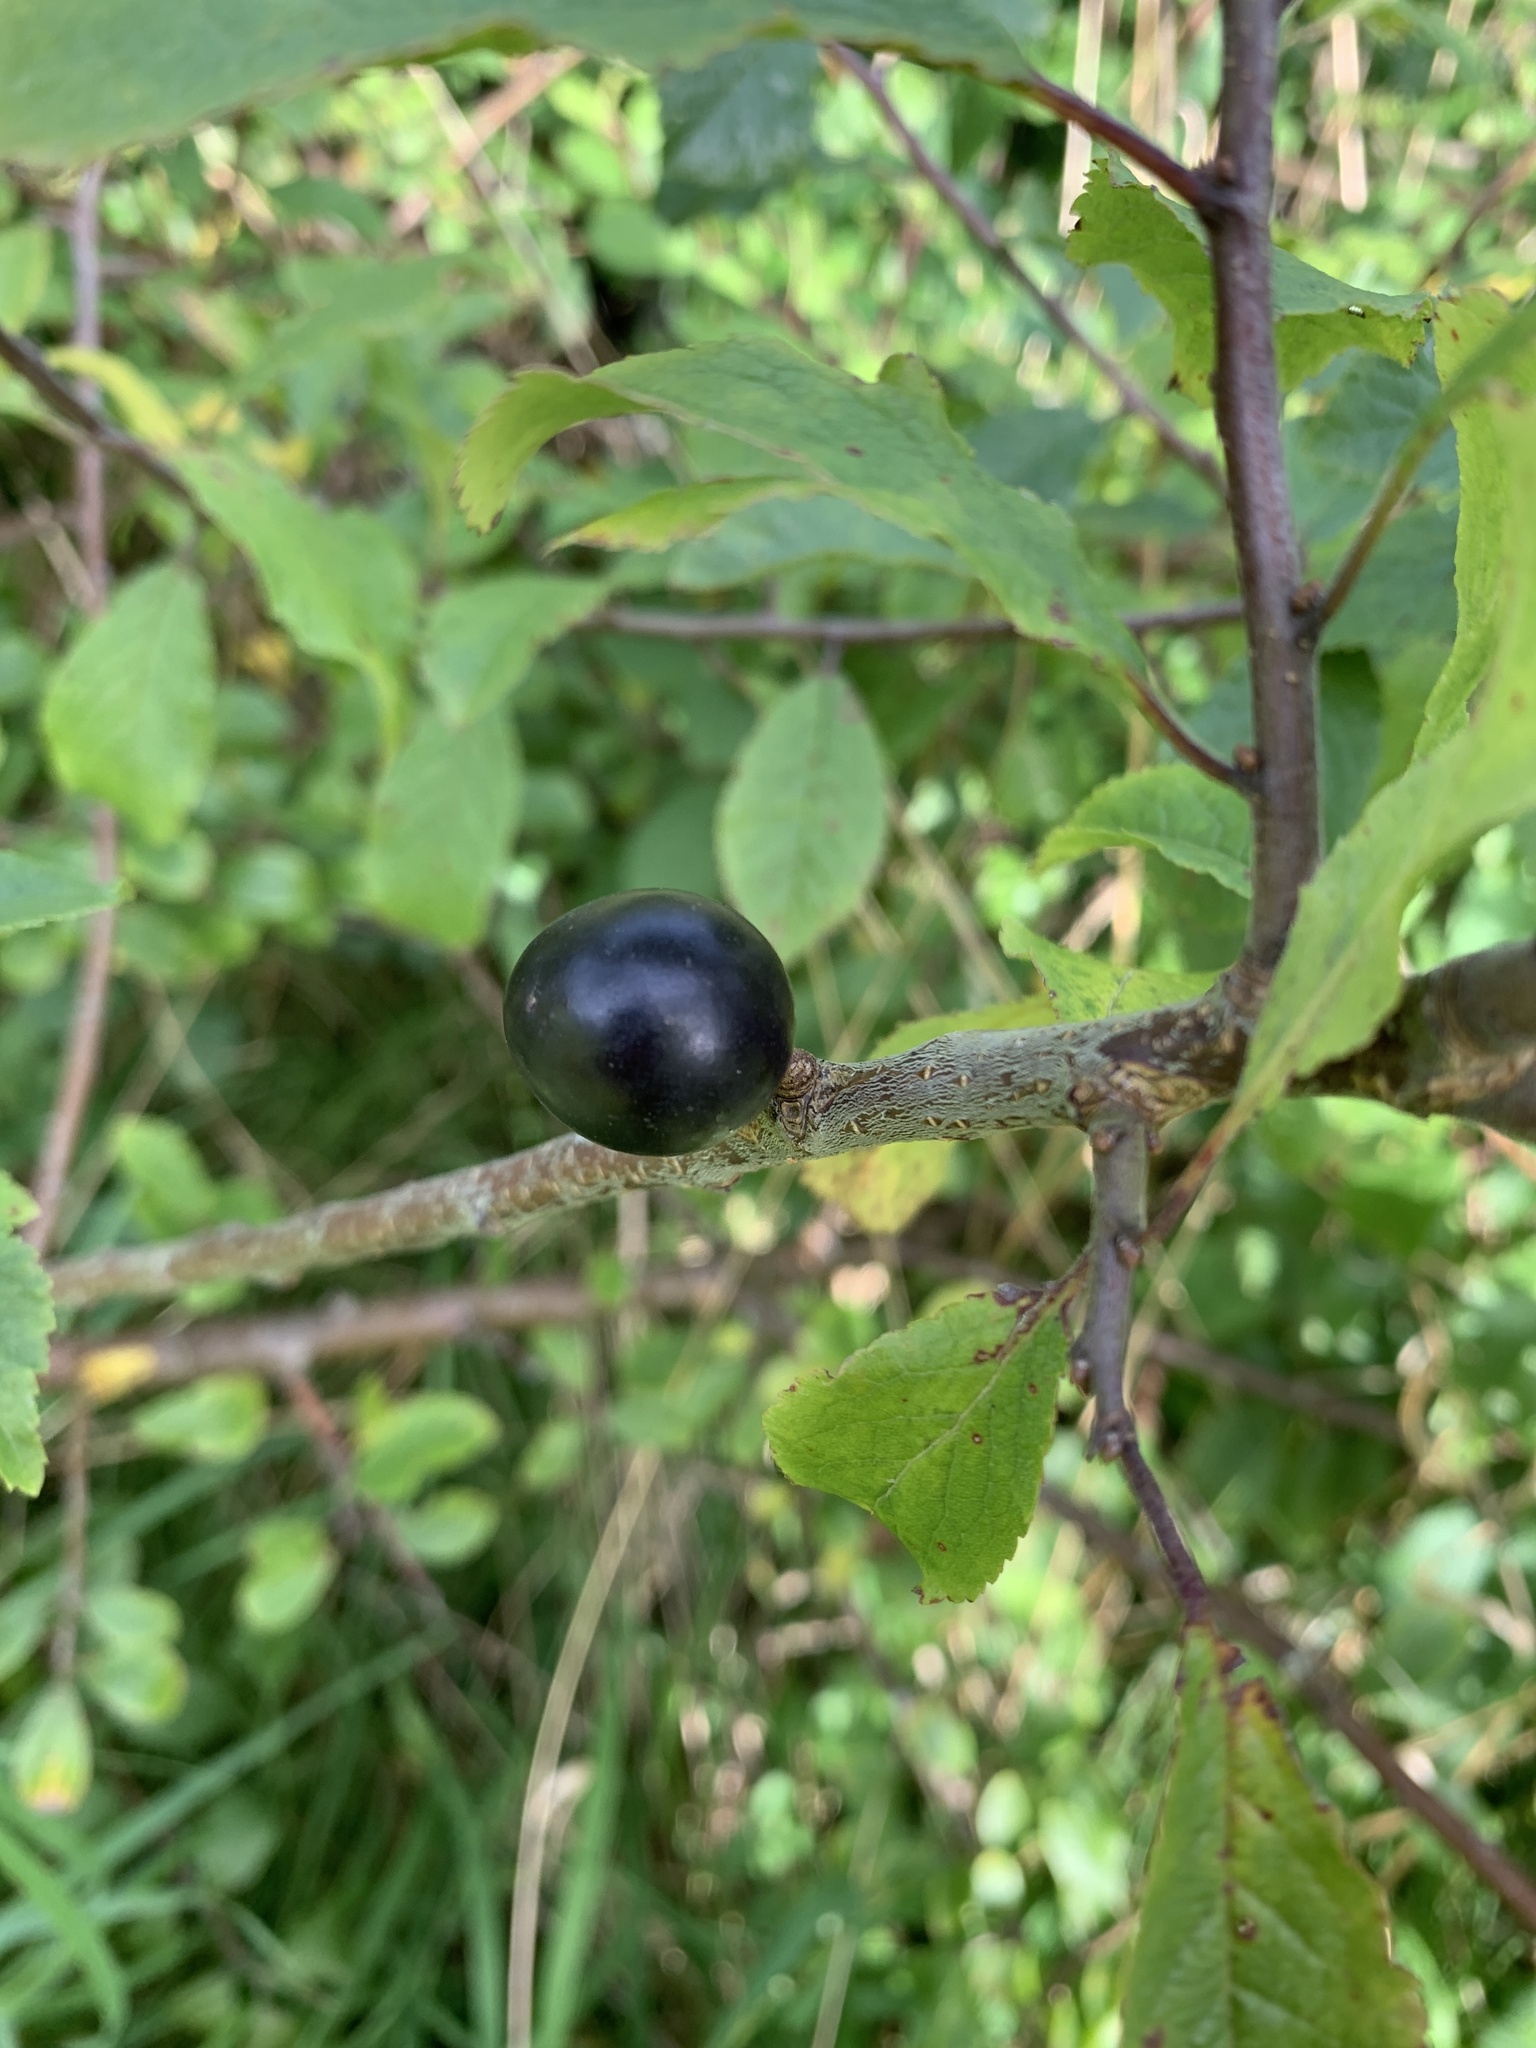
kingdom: Plantae
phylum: Tracheophyta
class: Magnoliopsida
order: Rosales
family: Rosaceae
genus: Prunus
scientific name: Prunus spinosa
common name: Blackthorn
